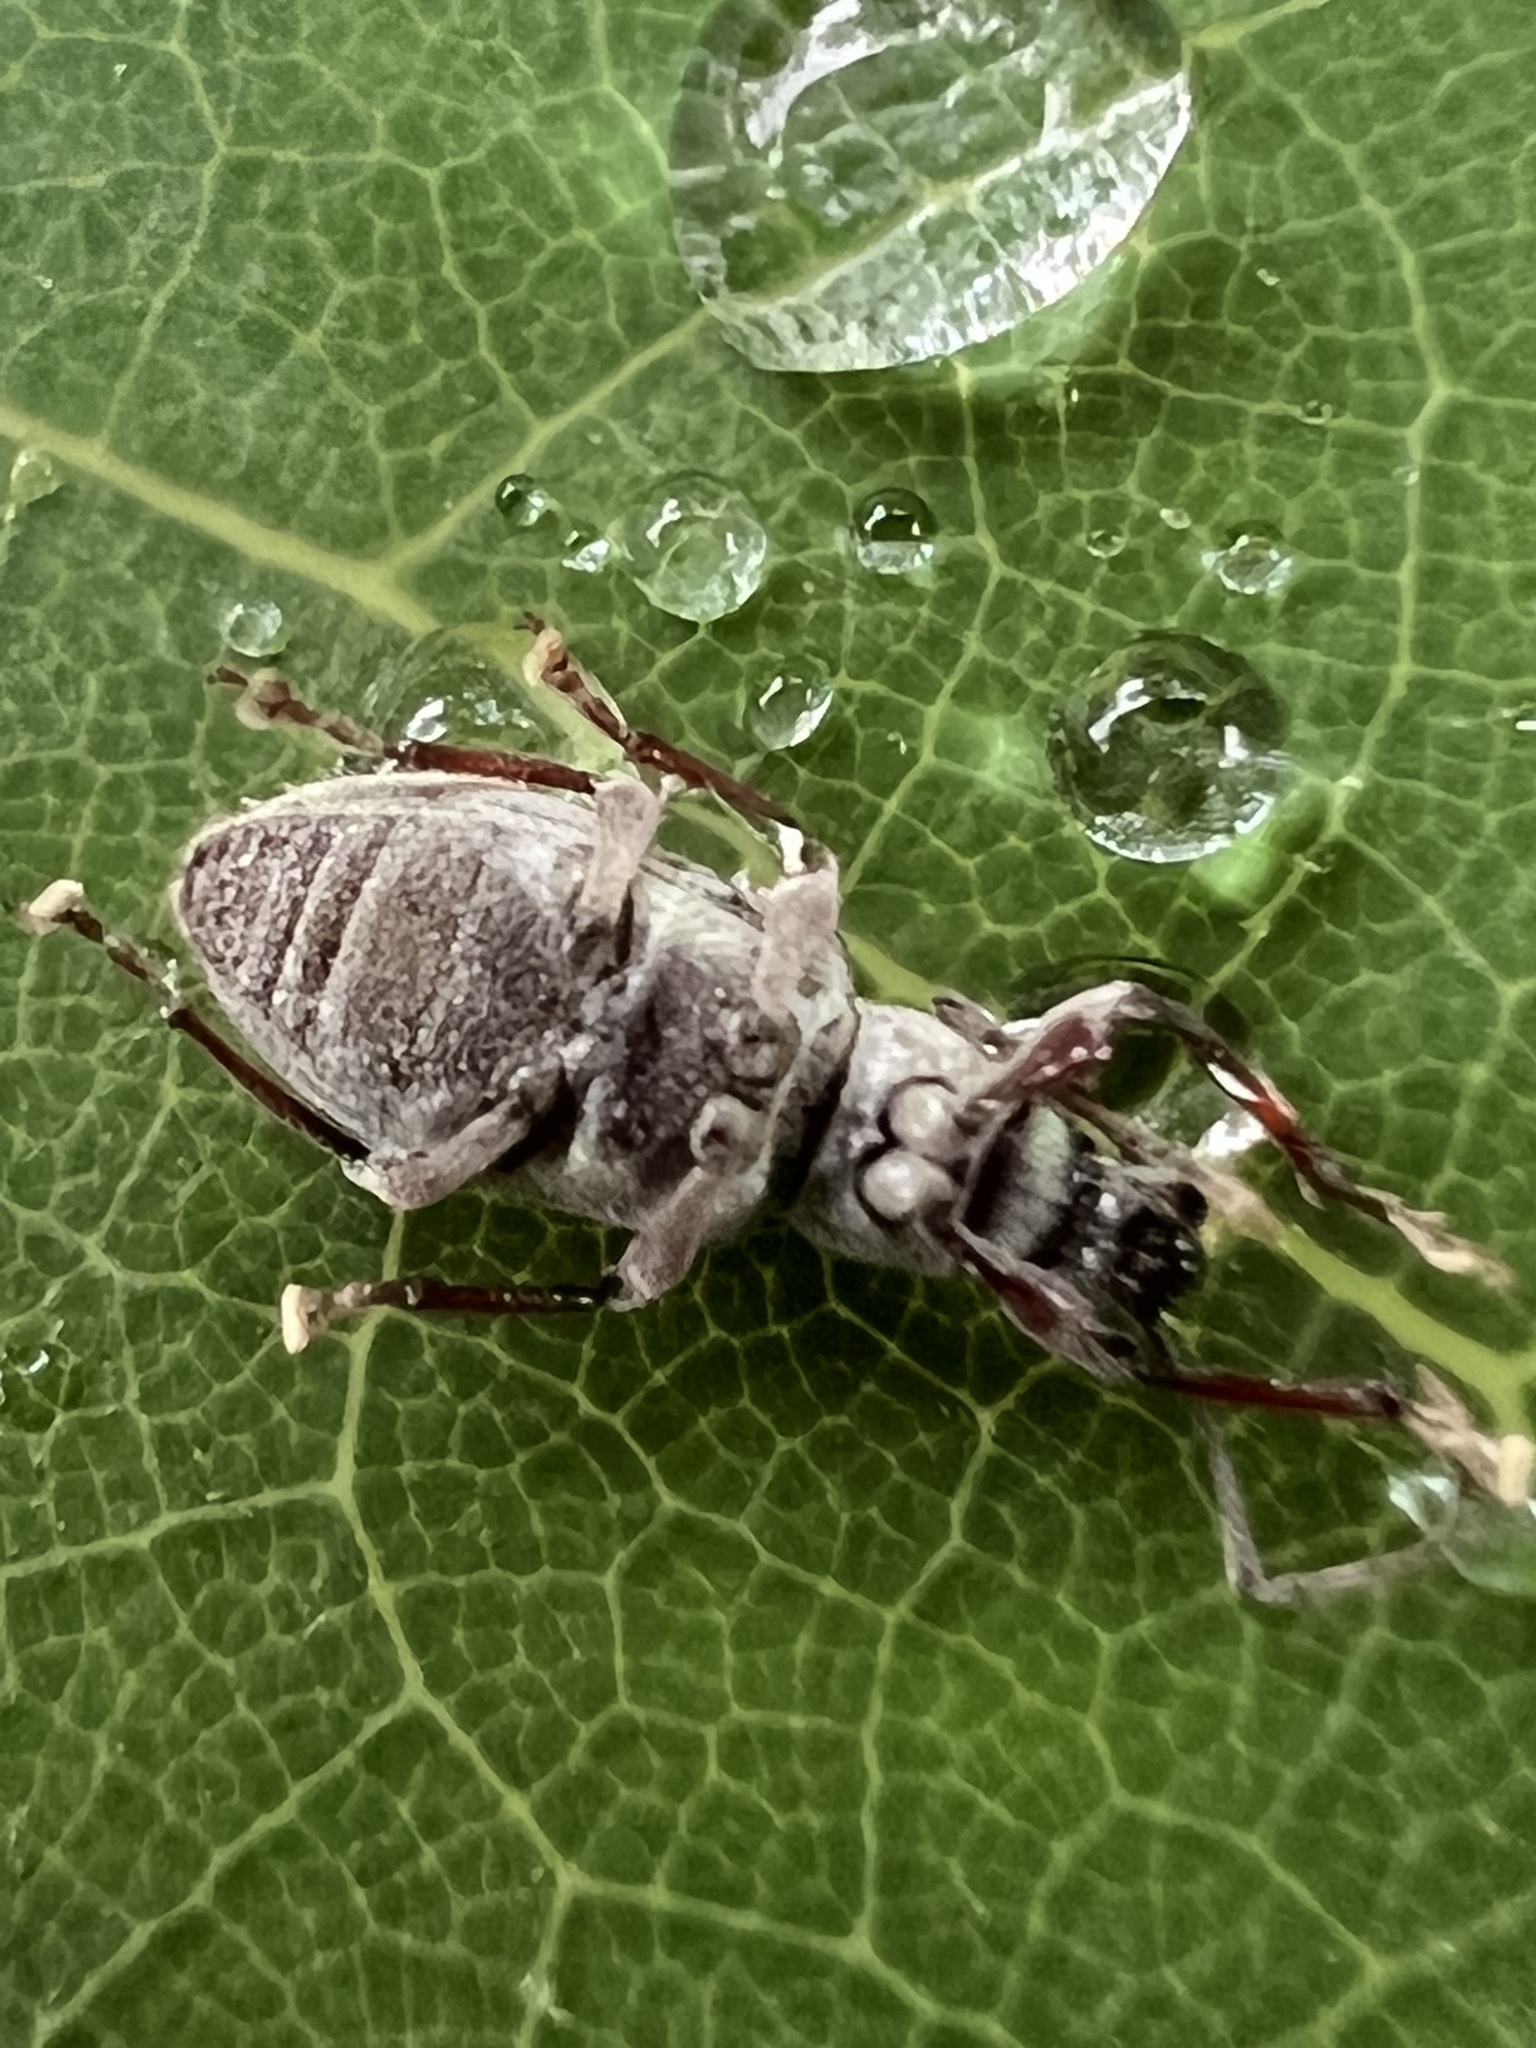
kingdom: Animalia
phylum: Arthropoda
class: Insecta
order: Coleoptera
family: Curculionidae
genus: Cyrtepistomus
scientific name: Cyrtepistomus castaneus
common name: Weevil
